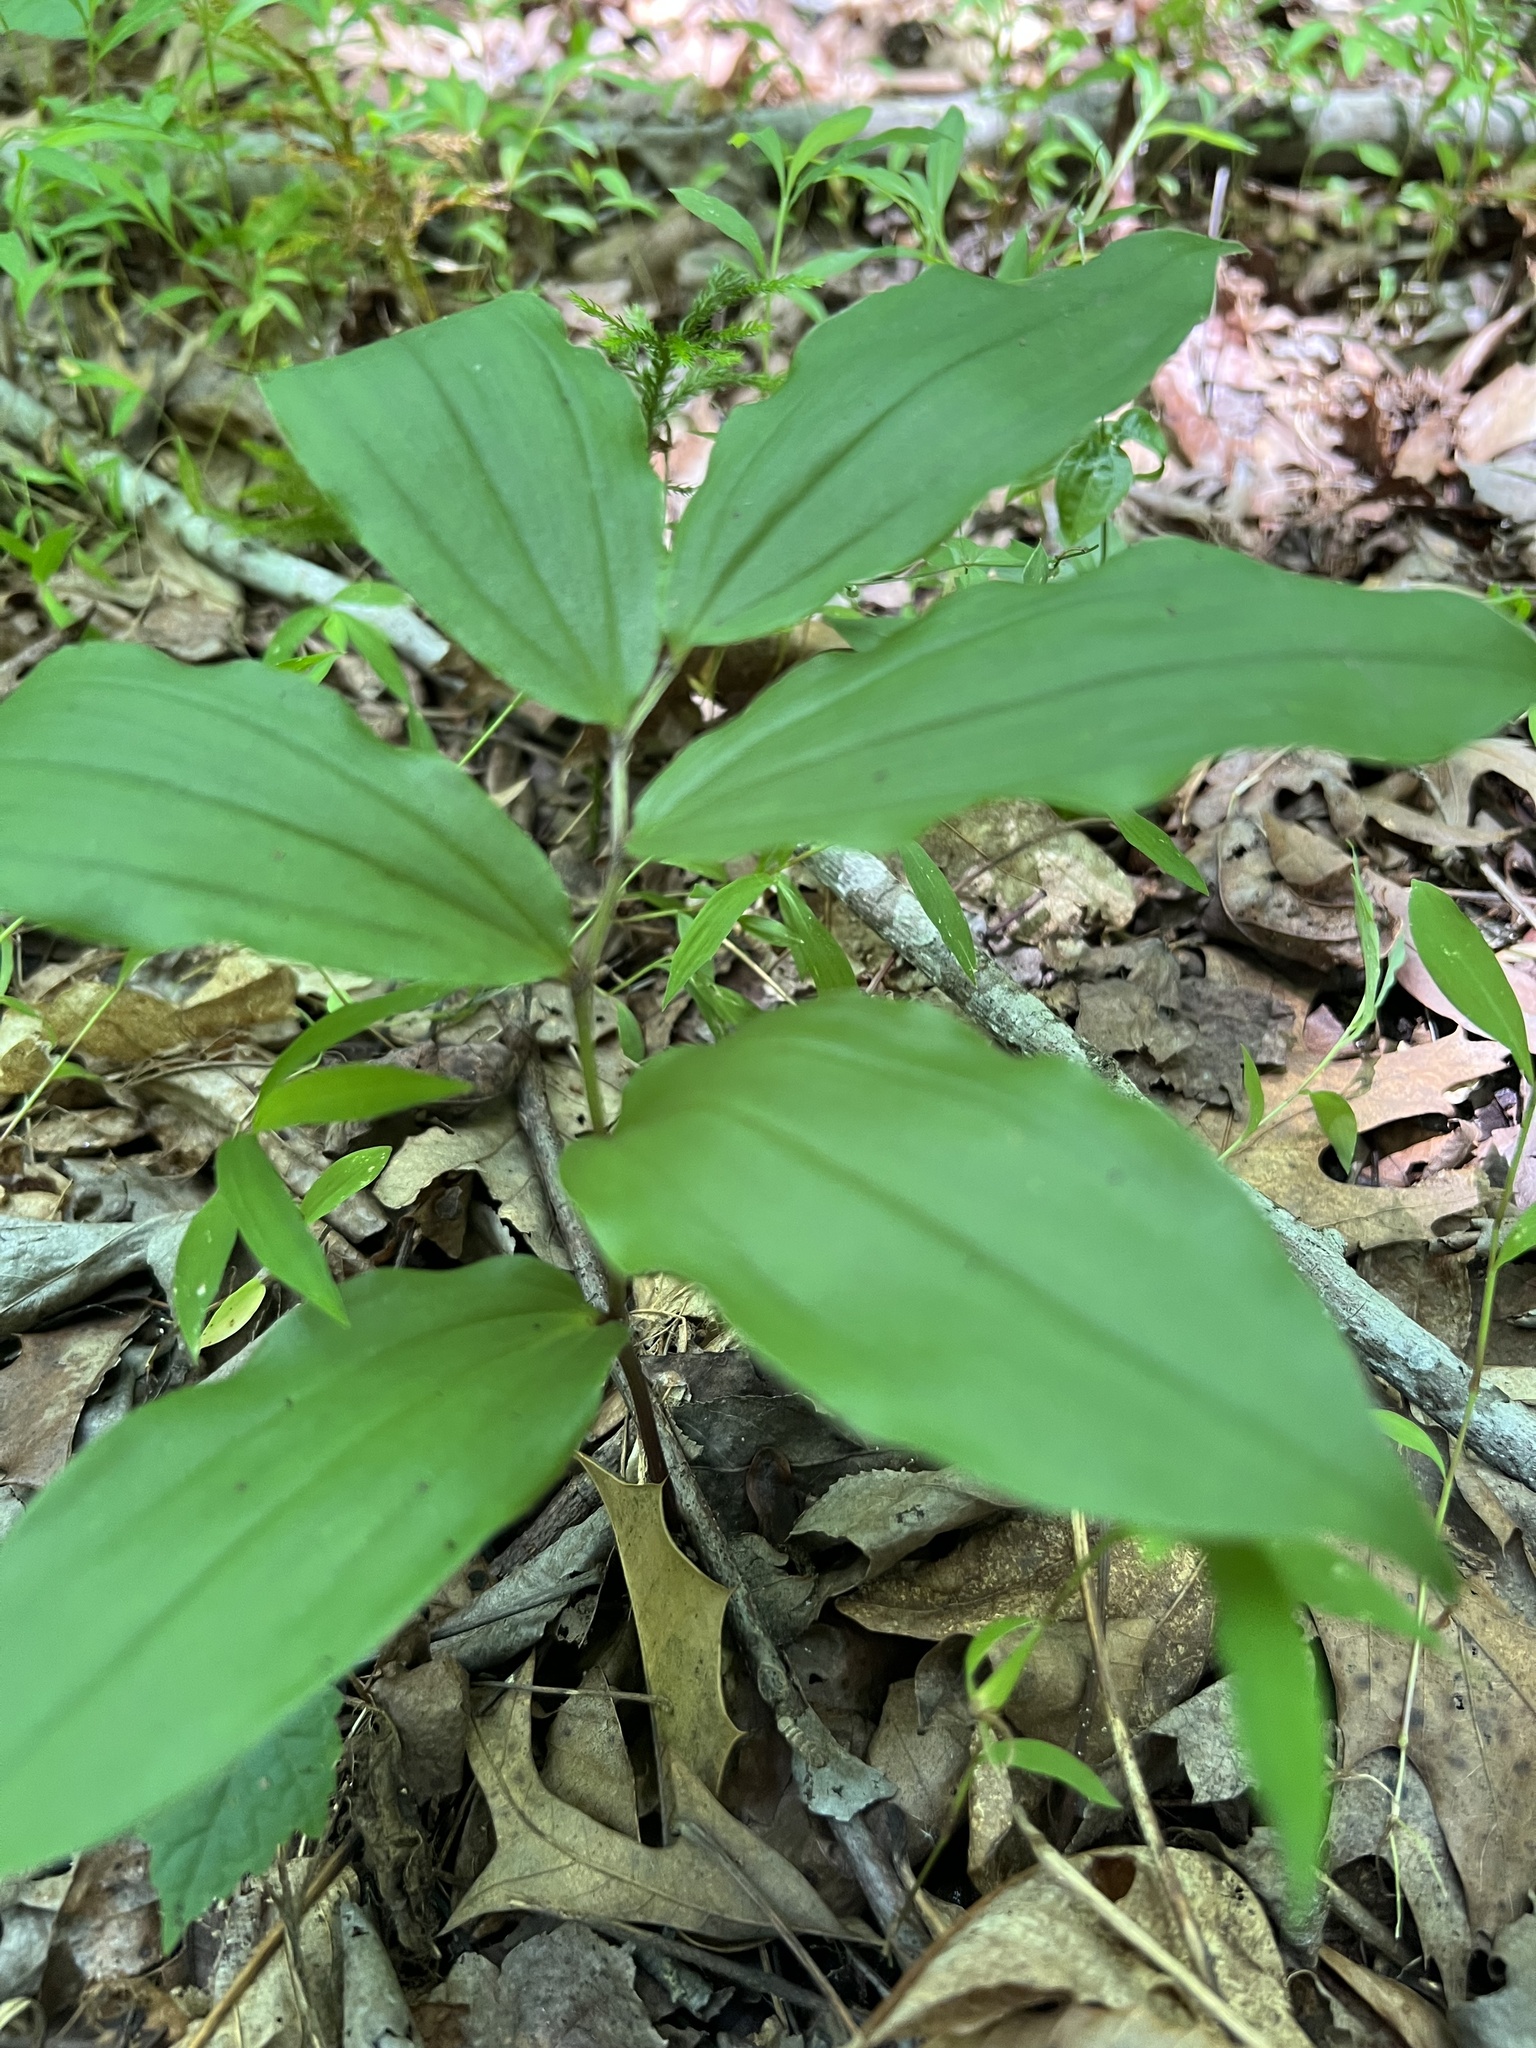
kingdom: Plantae
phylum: Tracheophyta
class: Liliopsida
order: Asparagales
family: Asparagaceae
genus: Maianthemum
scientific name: Maianthemum racemosum
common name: False spikenard
